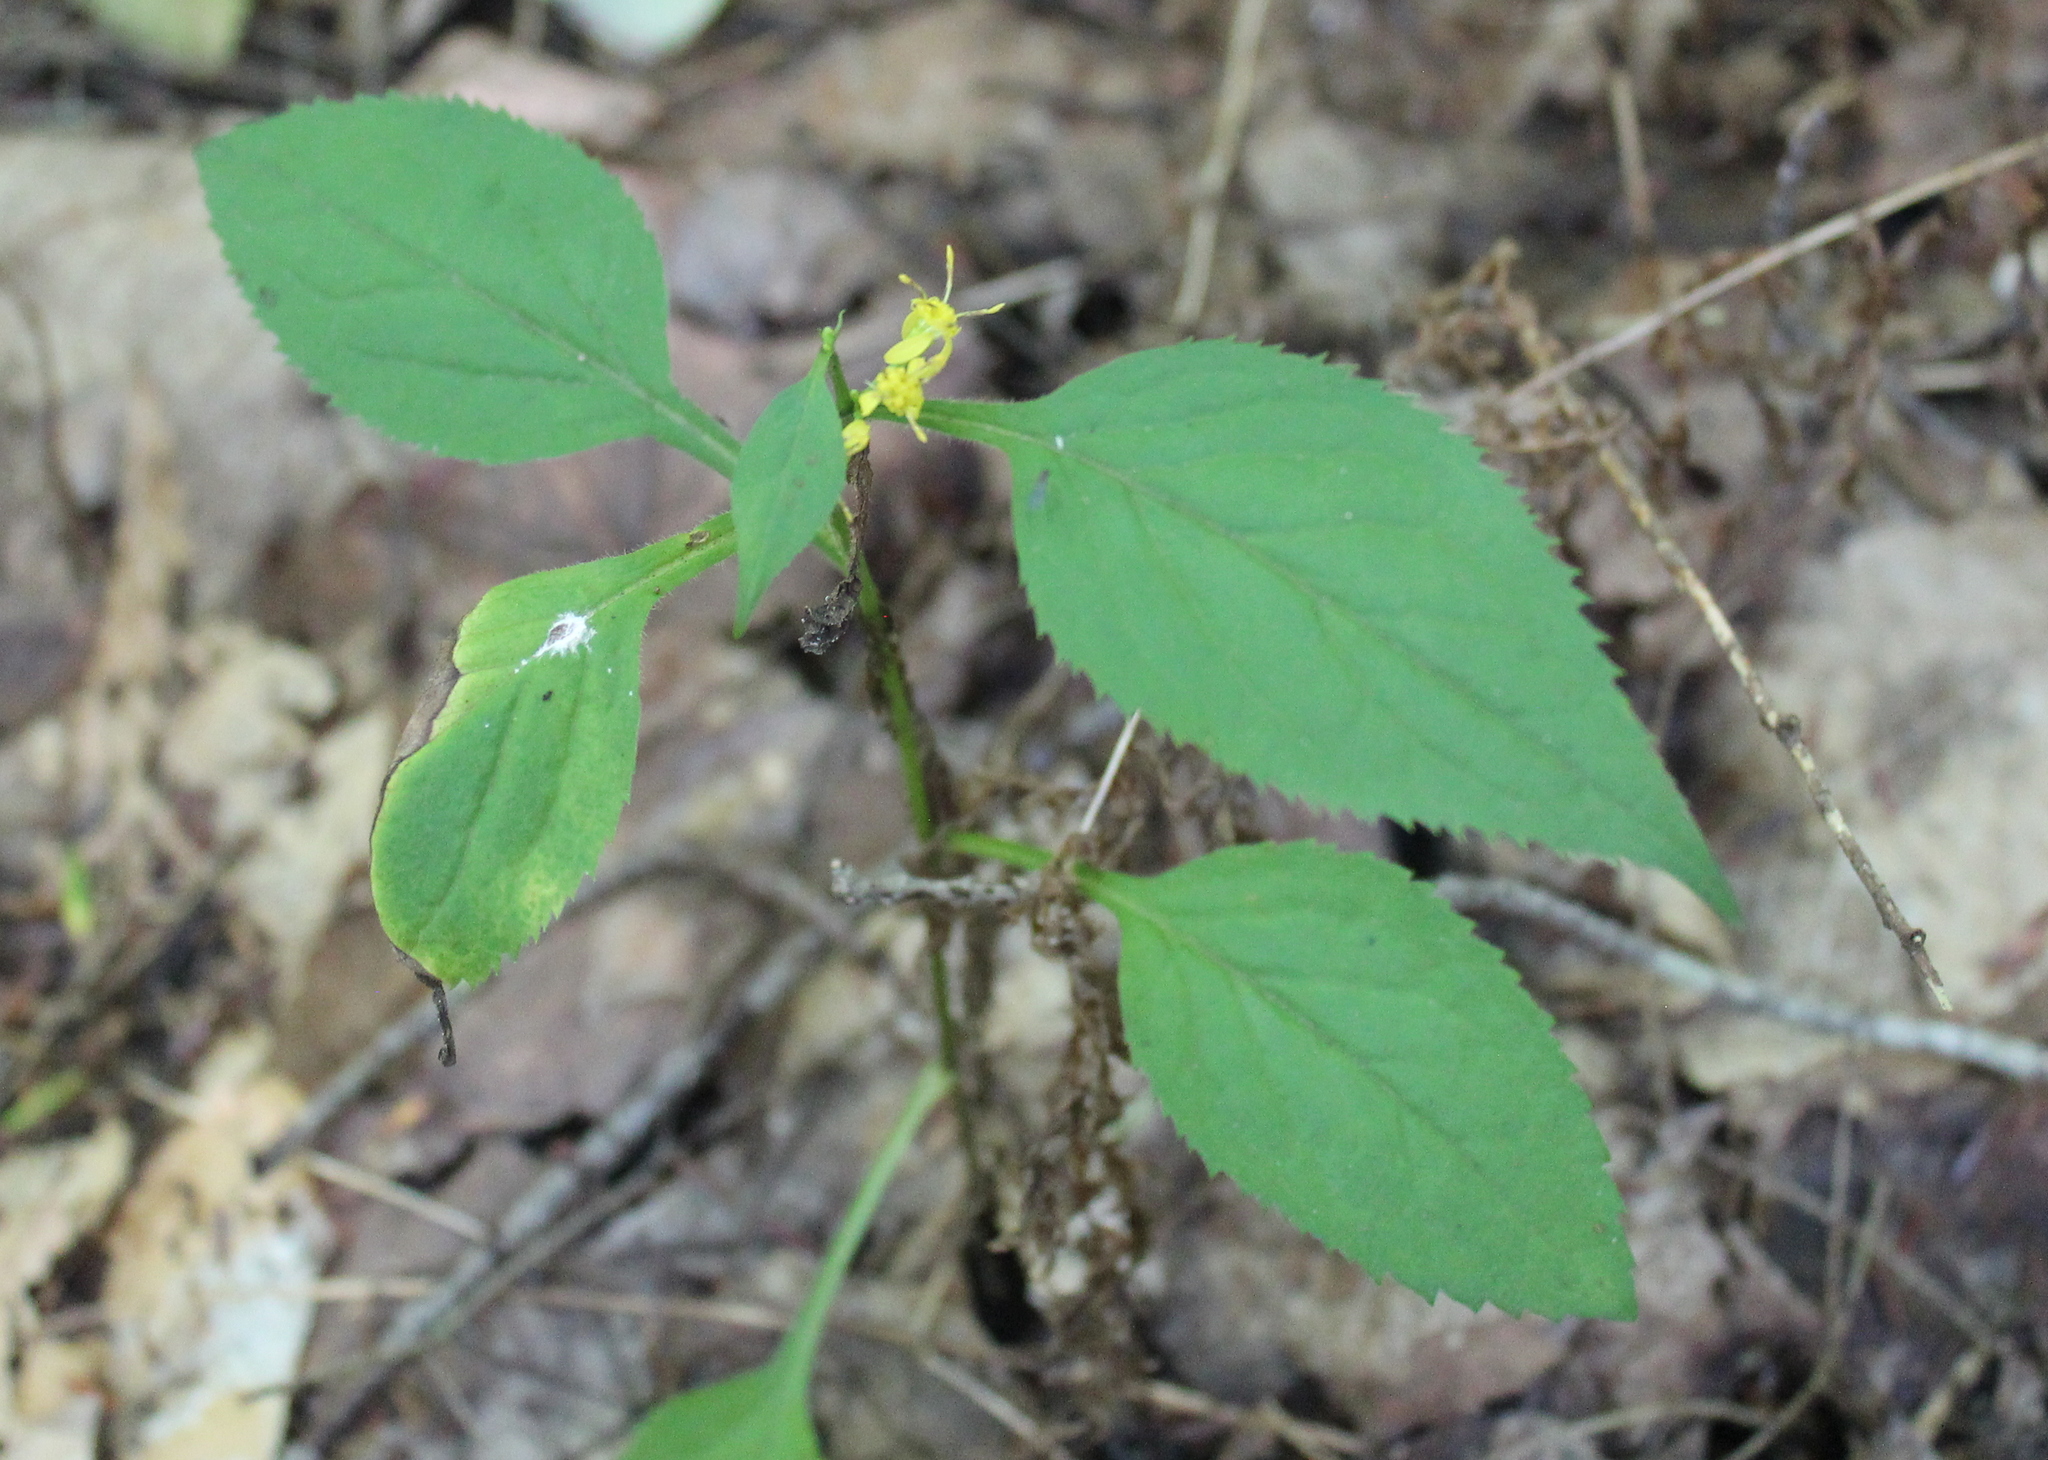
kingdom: Plantae
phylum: Tracheophyta
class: Magnoliopsida
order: Asterales
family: Asteraceae
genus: Solidago
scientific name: Solidago flexicaulis
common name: Zig-zag goldenrod
